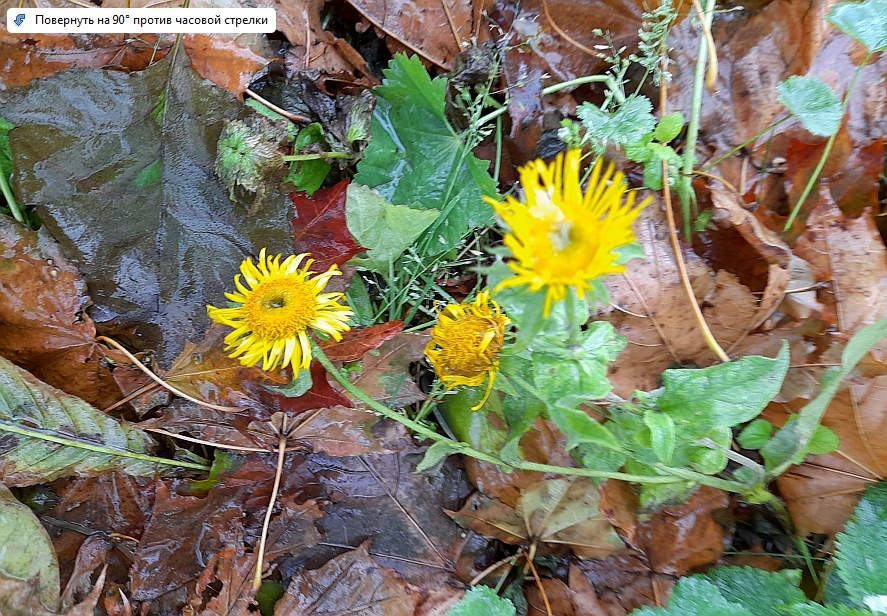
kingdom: Plantae
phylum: Tracheophyta
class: Magnoliopsida
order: Asterales
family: Asteraceae
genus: Pentanema
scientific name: Pentanema britannicum
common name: British elecampane
